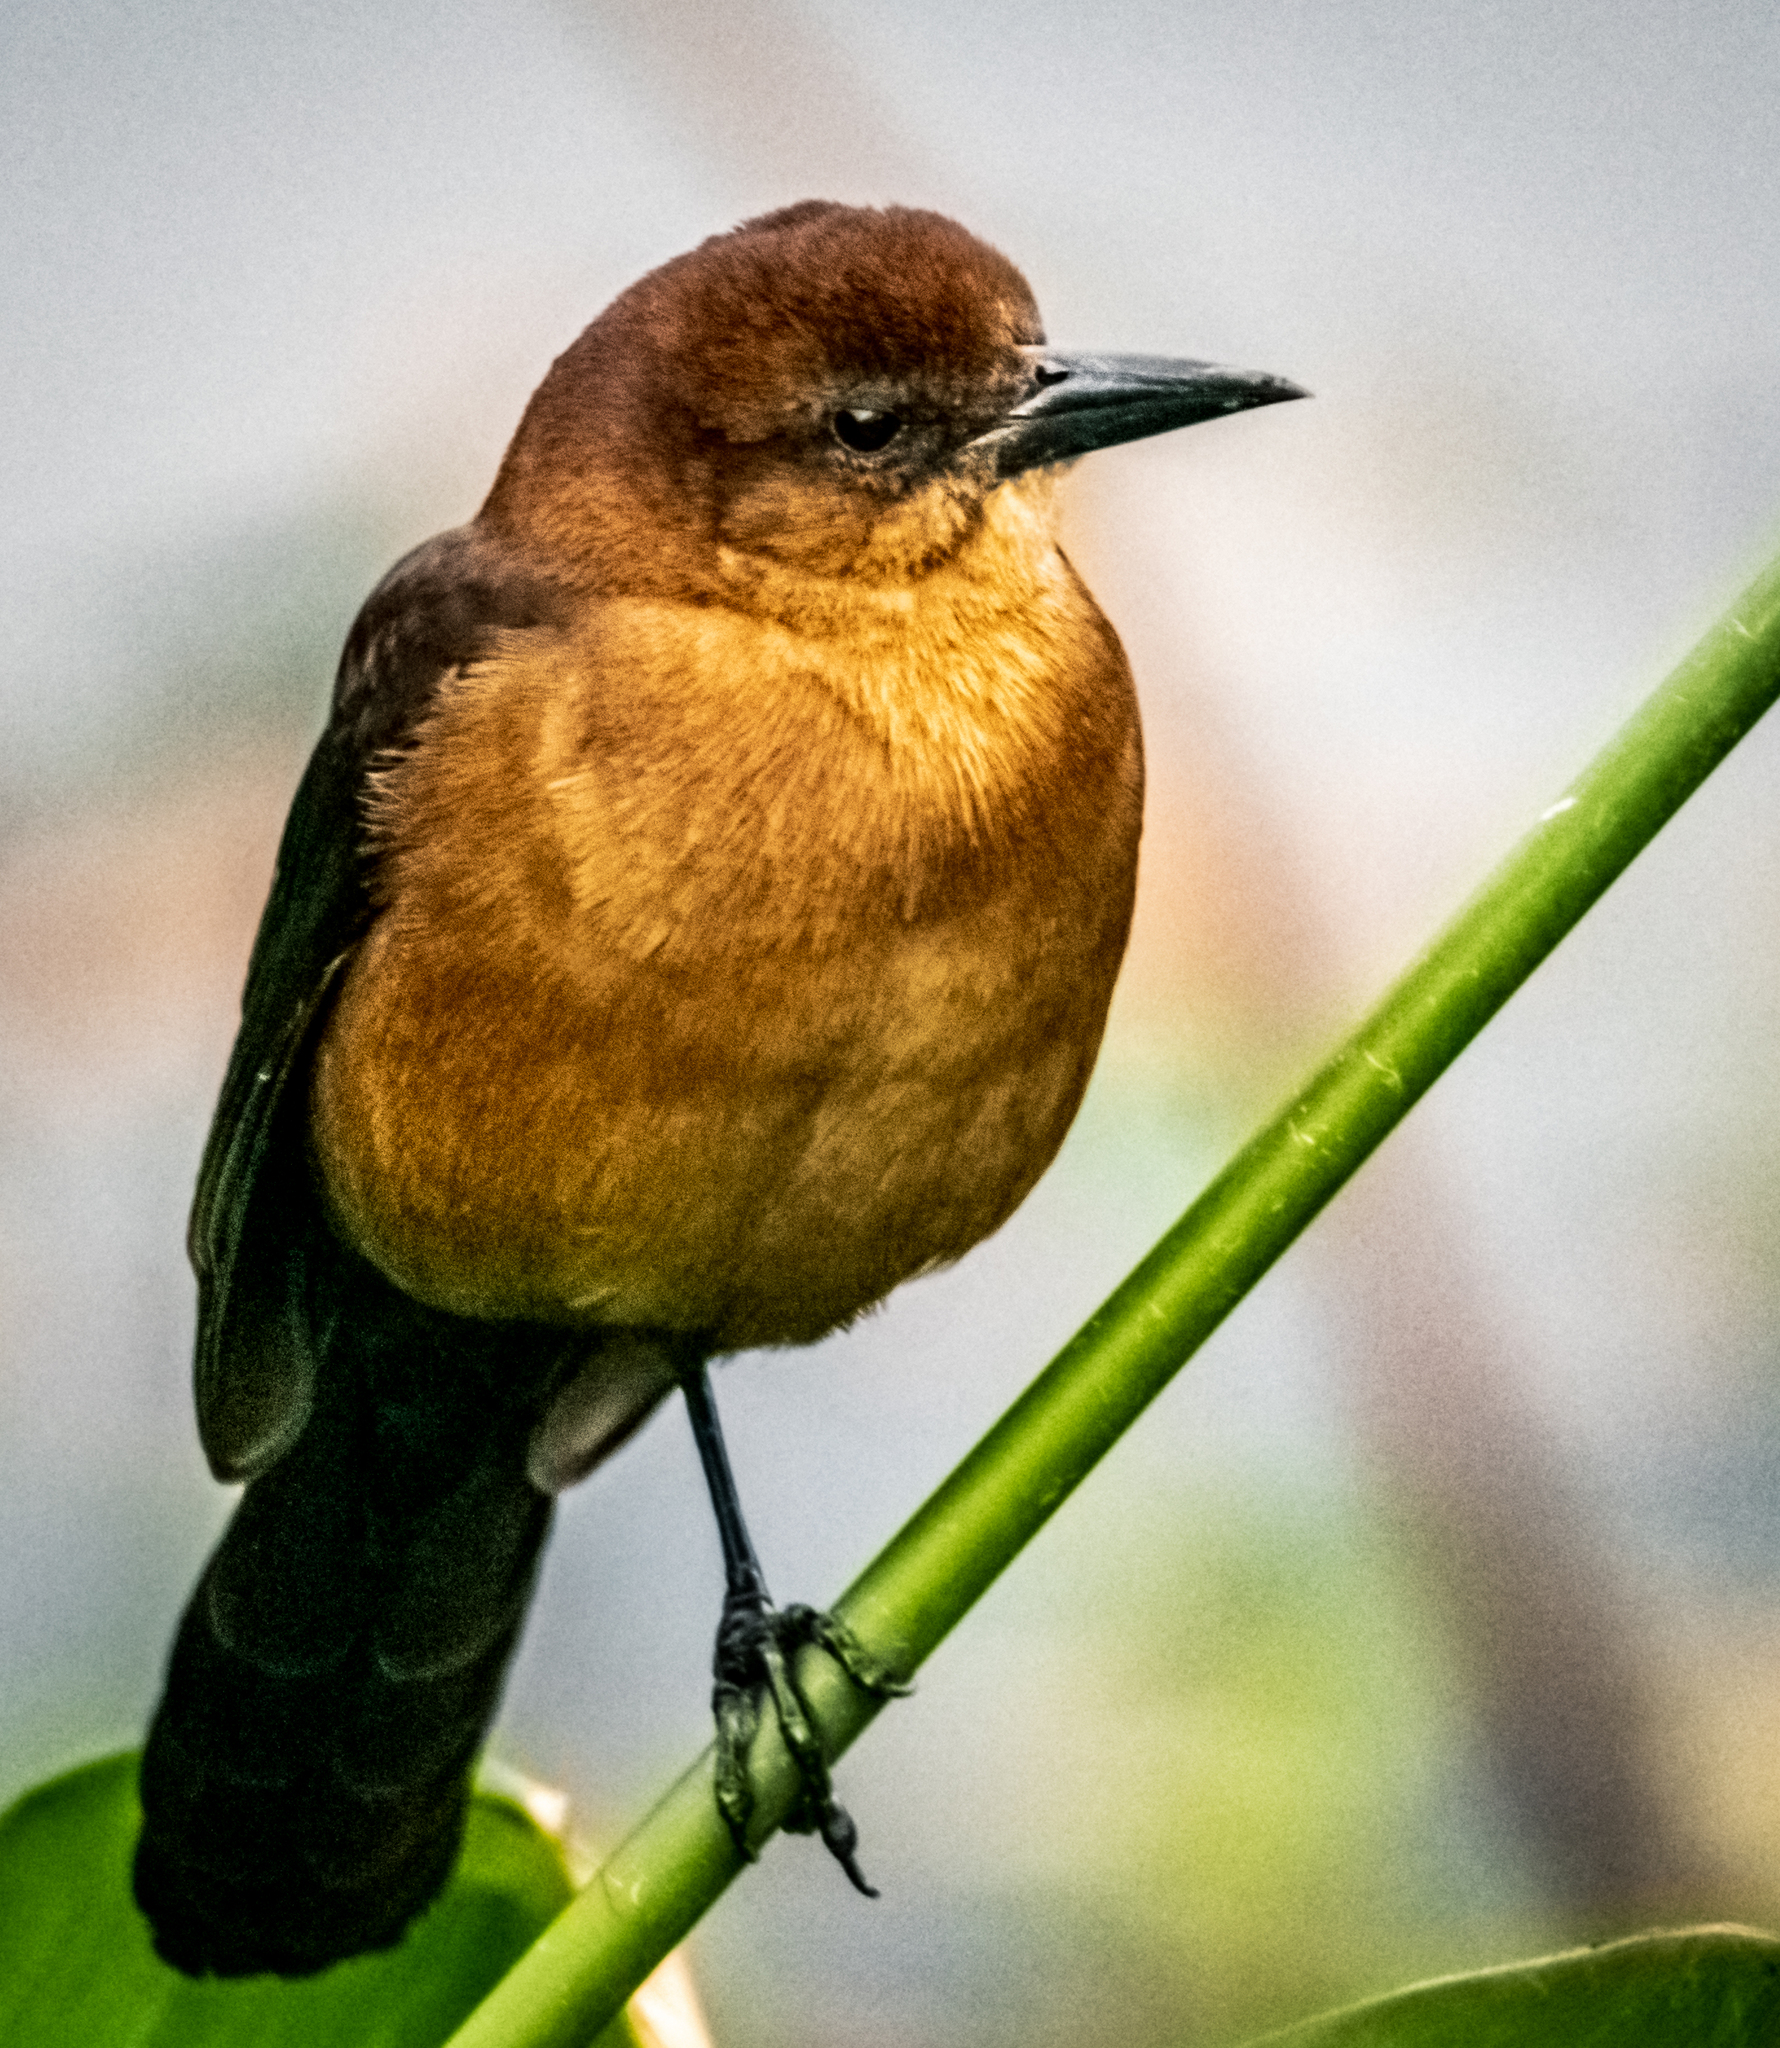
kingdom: Animalia
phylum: Chordata
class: Aves
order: Passeriformes
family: Icteridae
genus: Quiscalus
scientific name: Quiscalus major
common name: Boat-tailed grackle
